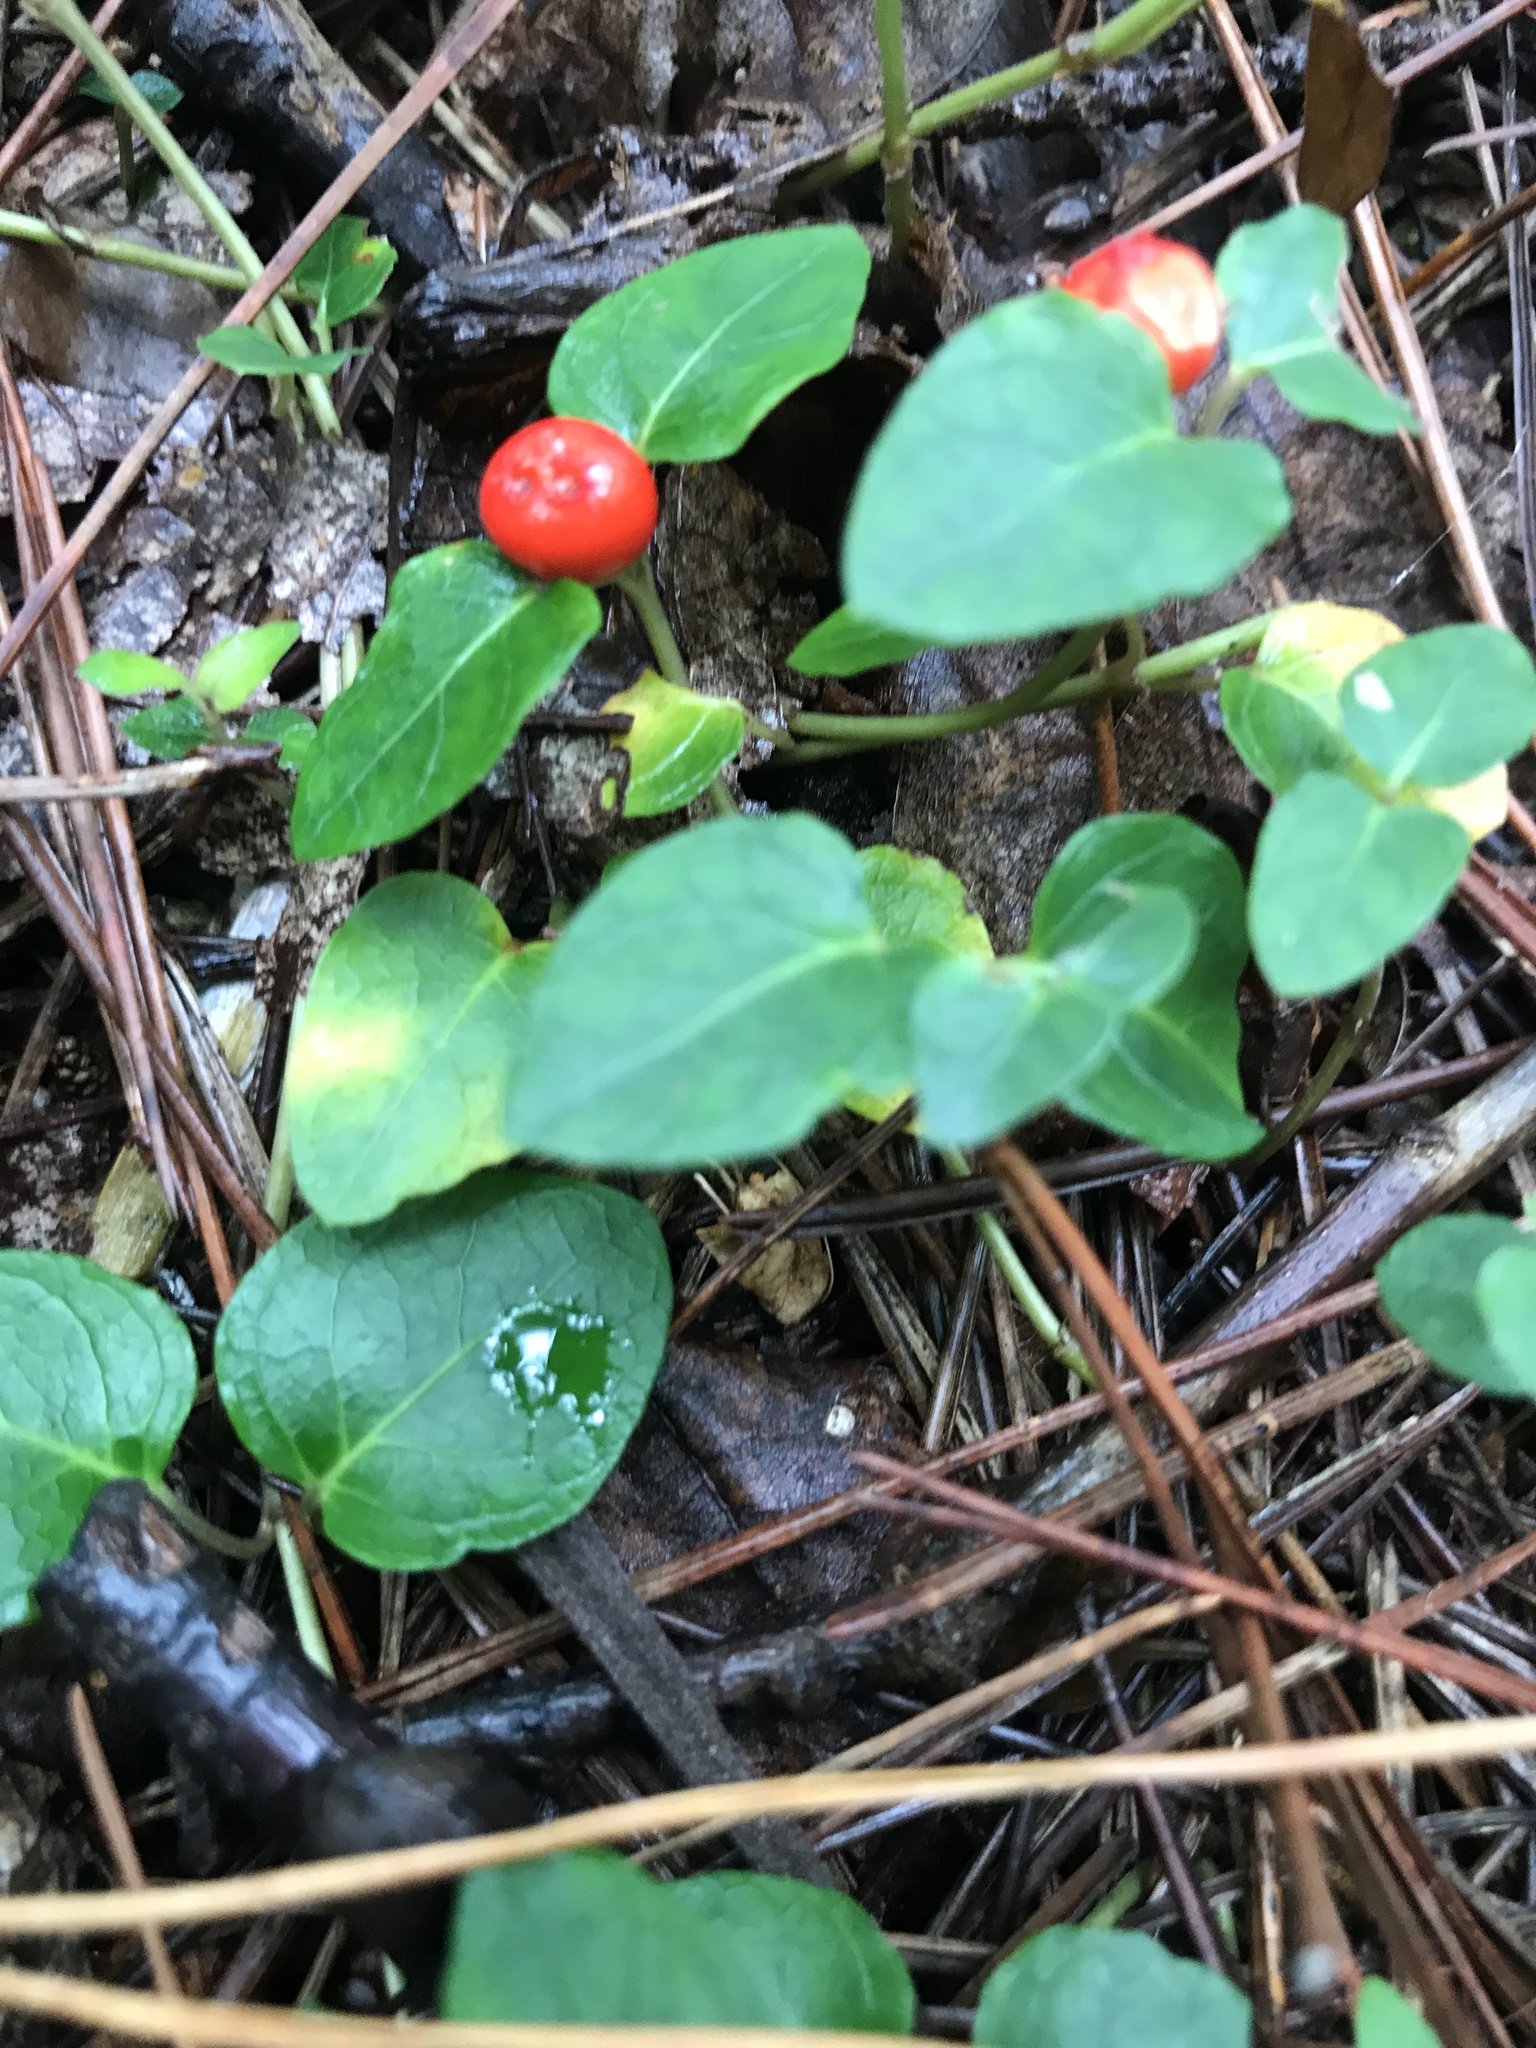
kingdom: Plantae
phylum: Tracheophyta
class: Magnoliopsida
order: Gentianales
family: Rubiaceae
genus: Mitchella
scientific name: Mitchella repens
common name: Partridge-berry
